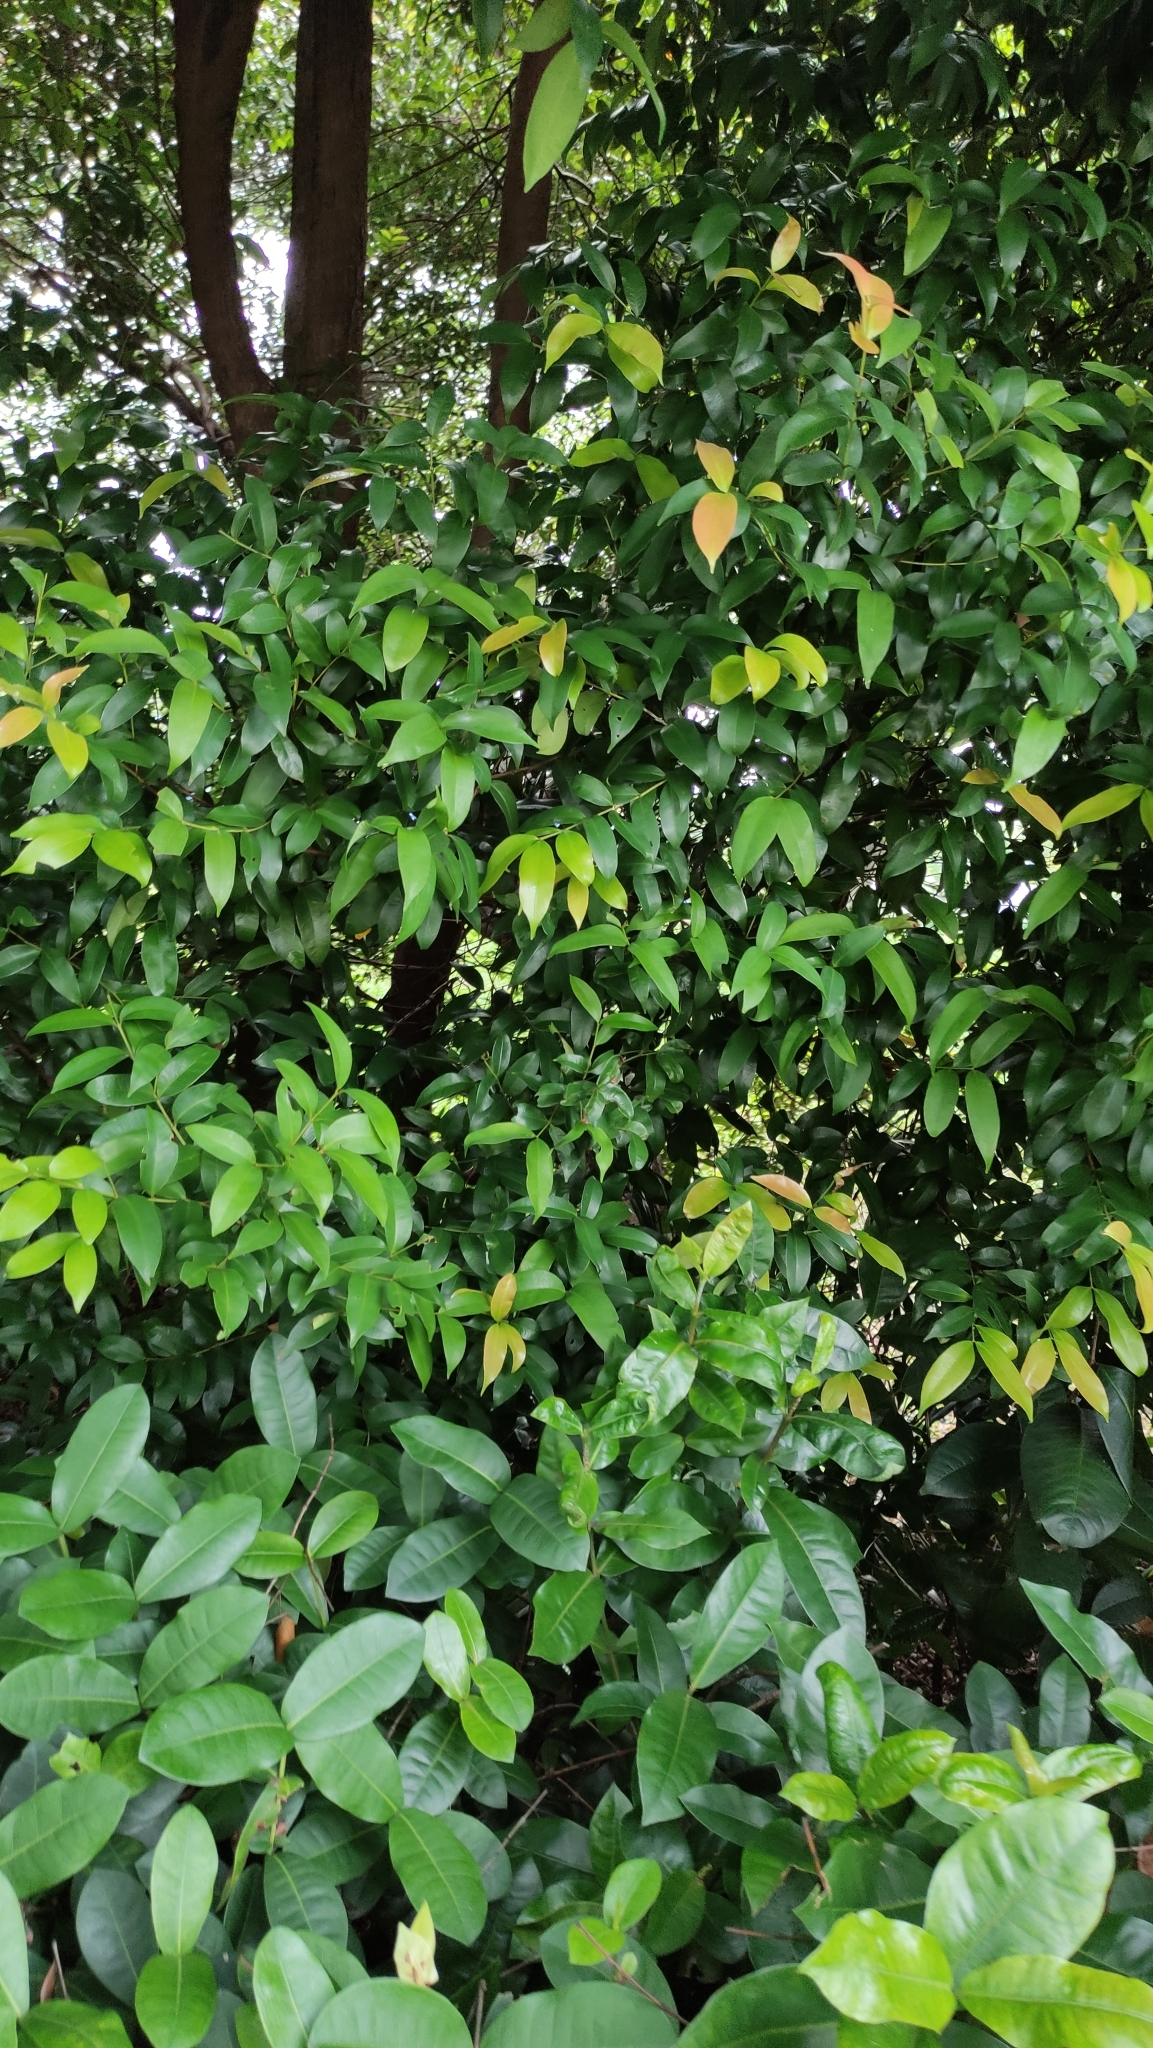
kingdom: Plantae
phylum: Tracheophyta
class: Magnoliopsida
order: Myrtales
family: Myrtaceae
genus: Syzygium
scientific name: Syzygium myrtifolium
